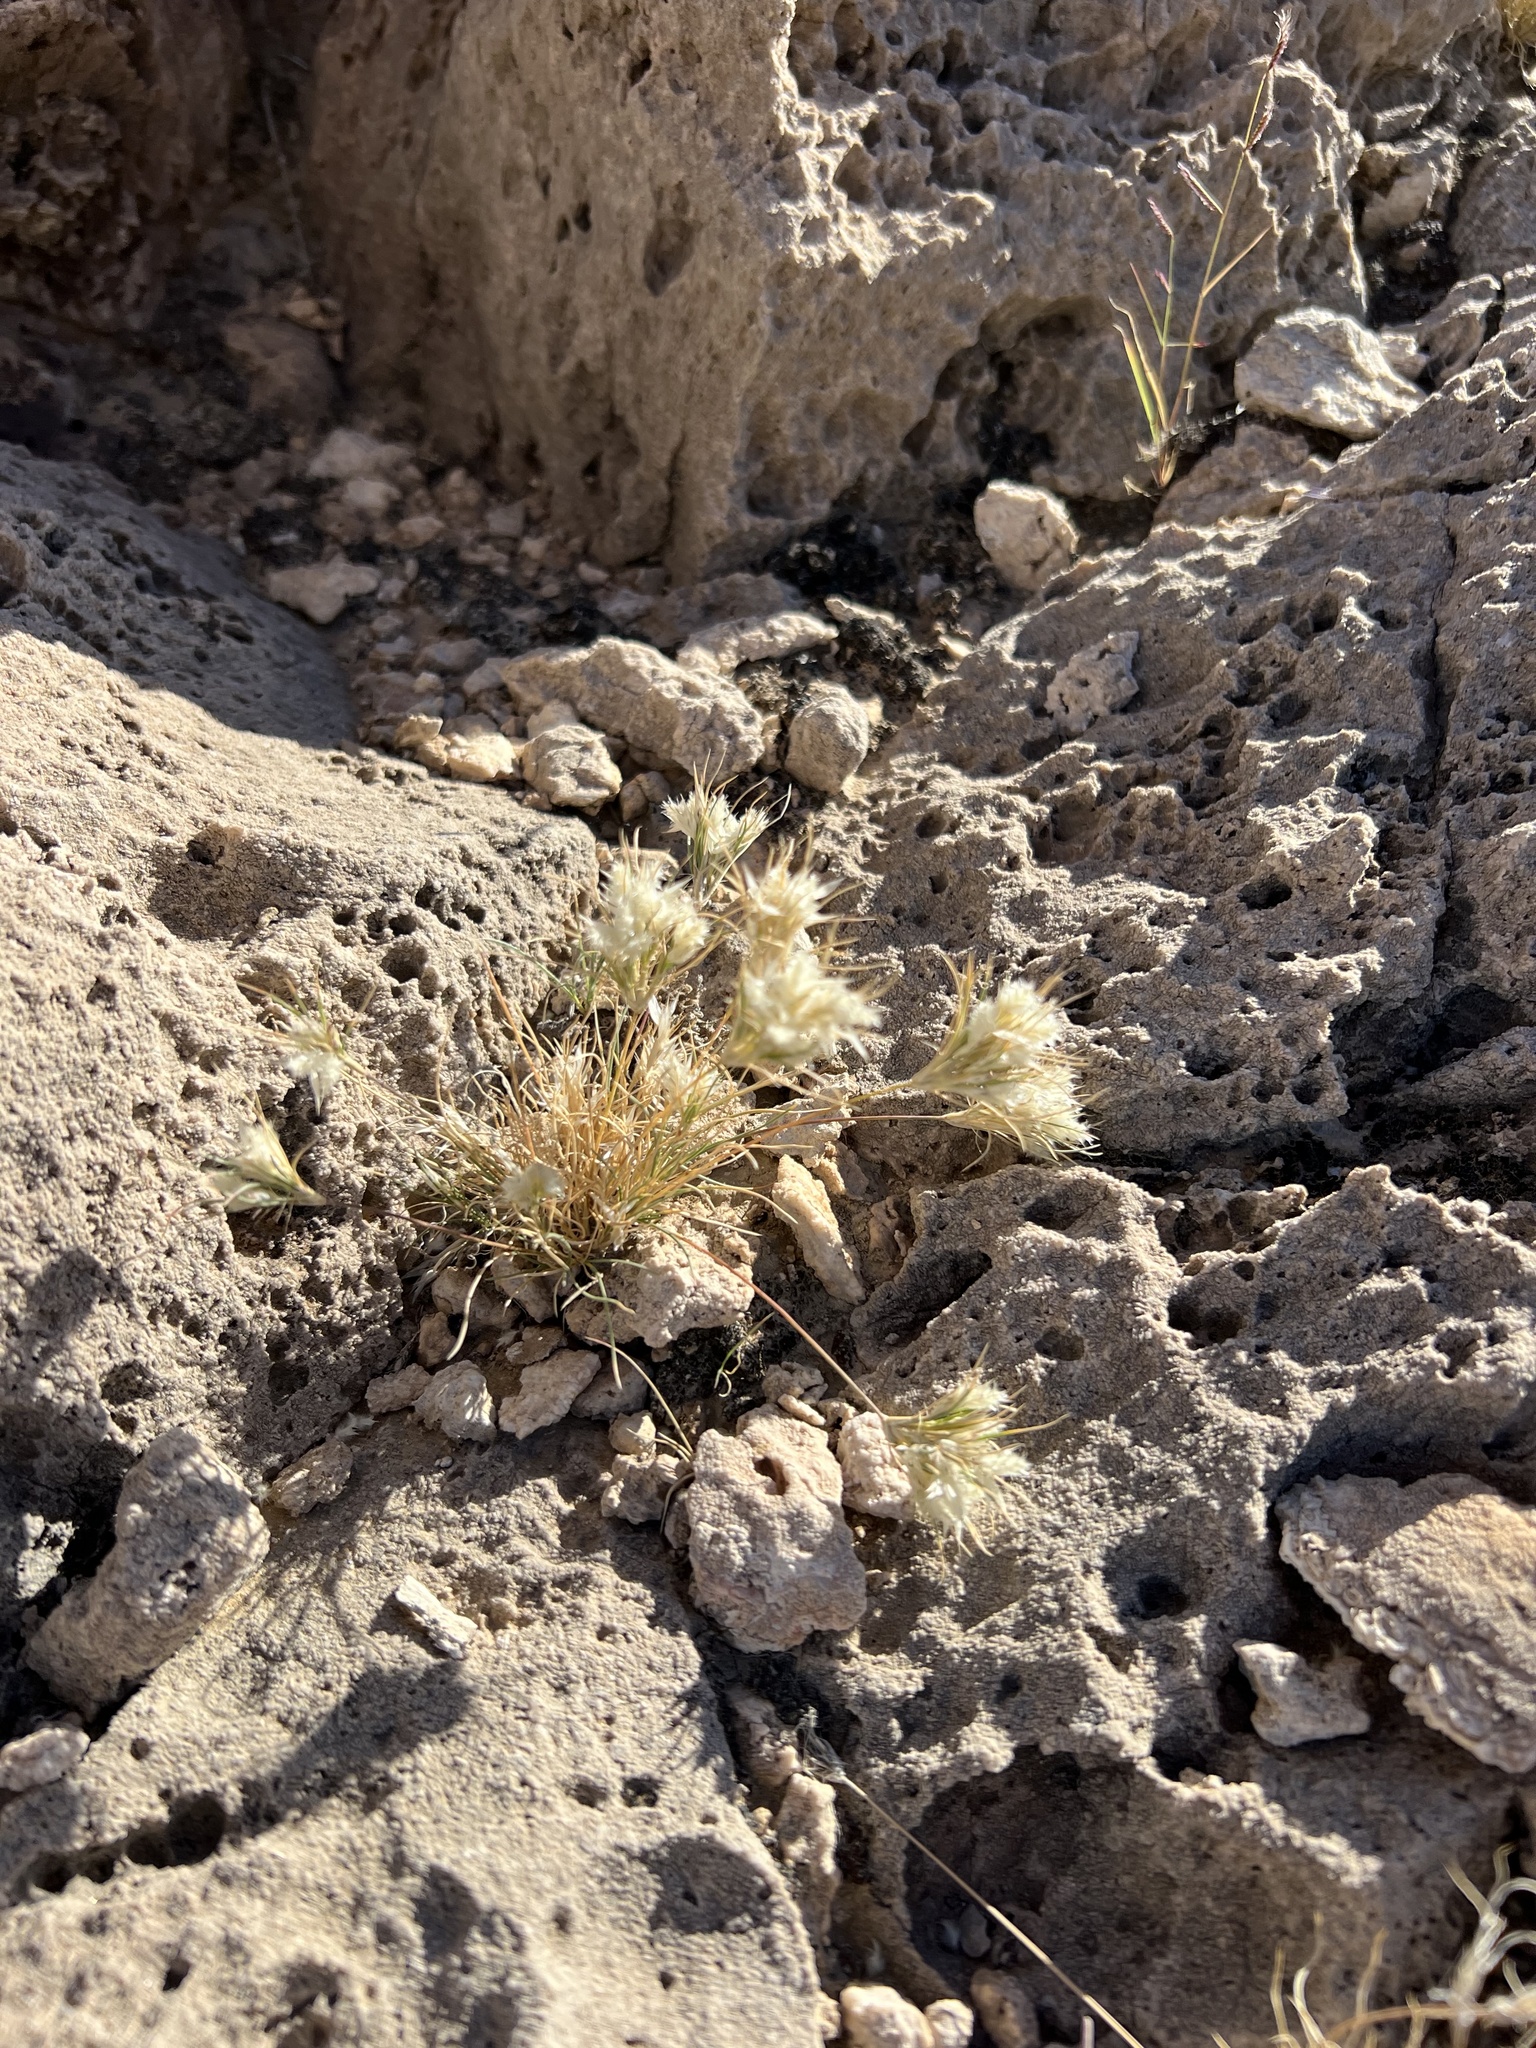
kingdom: Plantae
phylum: Tracheophyta
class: Liliopsida
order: Poales
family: Poaceae
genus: Dasyochloa
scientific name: Dasyochloa pulchella
